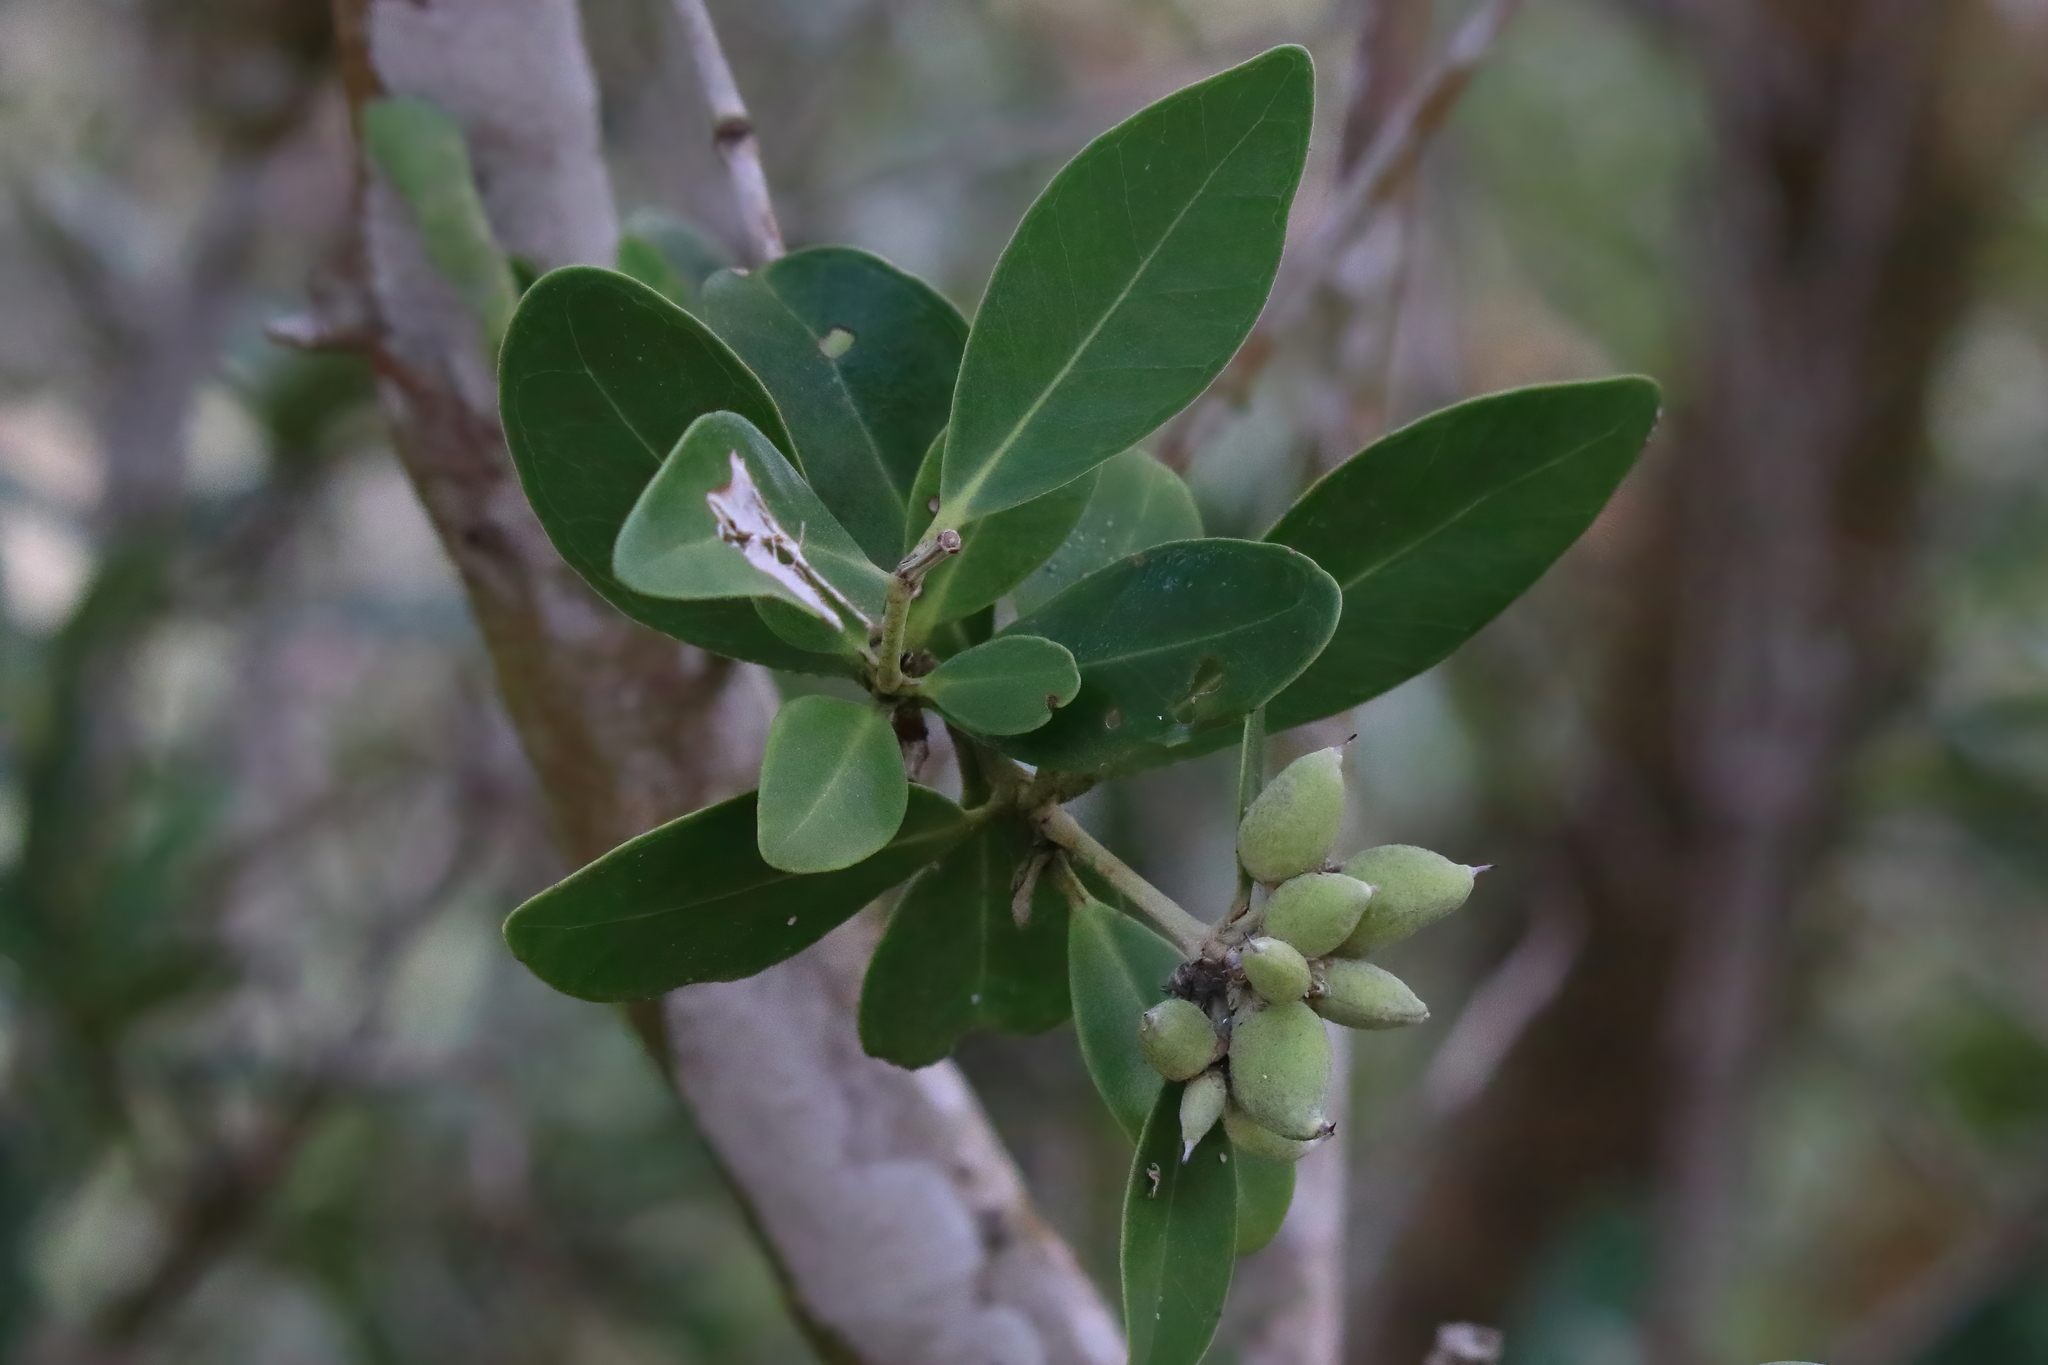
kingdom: Plantae
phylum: Tracheophyta
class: Magnoliopsida
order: Lamiales
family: Acanthaceae
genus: Avicennia
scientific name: Avicennia germinans
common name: Black mangrove
